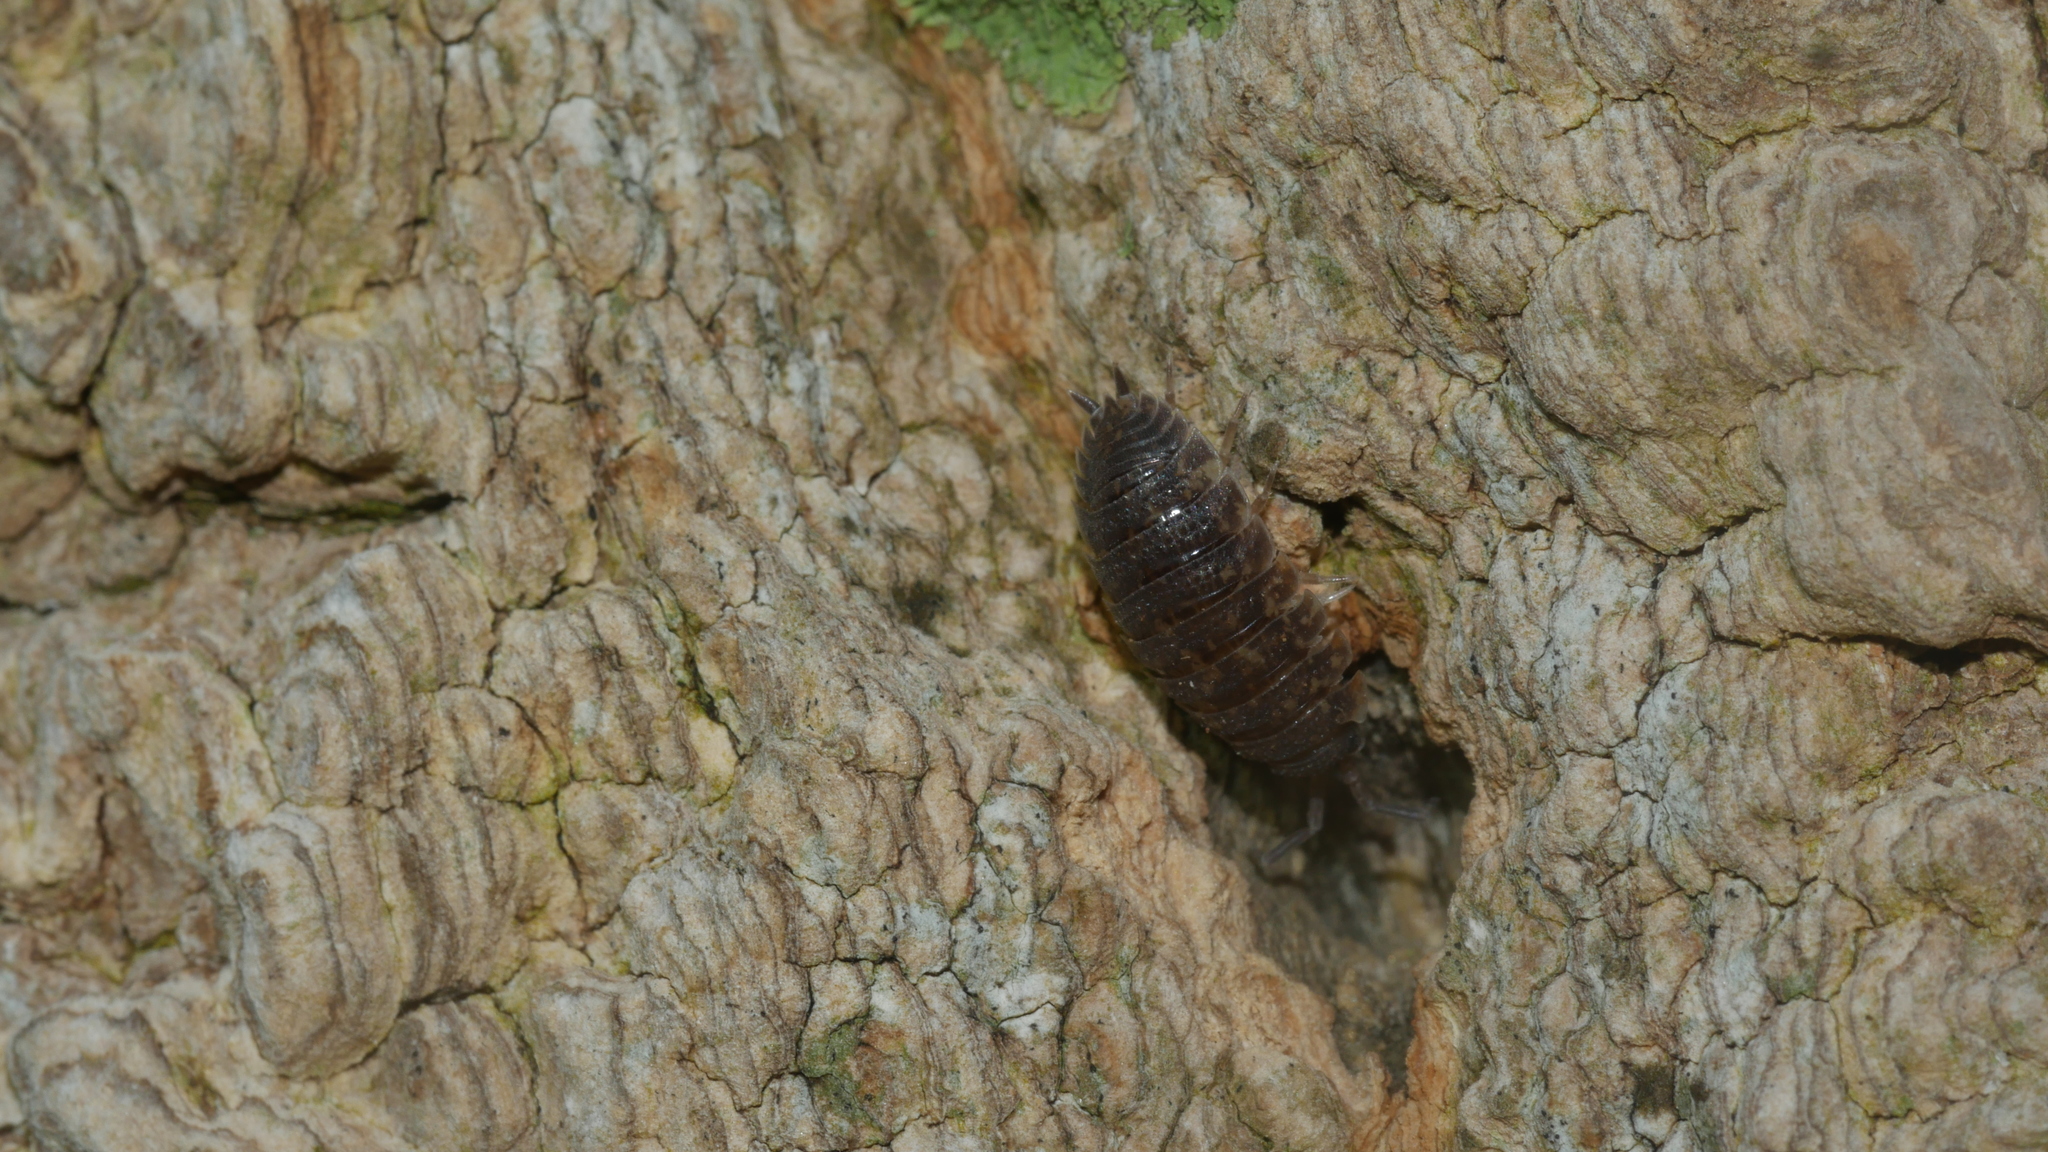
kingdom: Animalia
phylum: Arthropoda
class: Malacostraca
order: Isopoda
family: Porcellionidae
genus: Porcellio
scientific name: Porcellio scaber
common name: Common rough woodlouse
